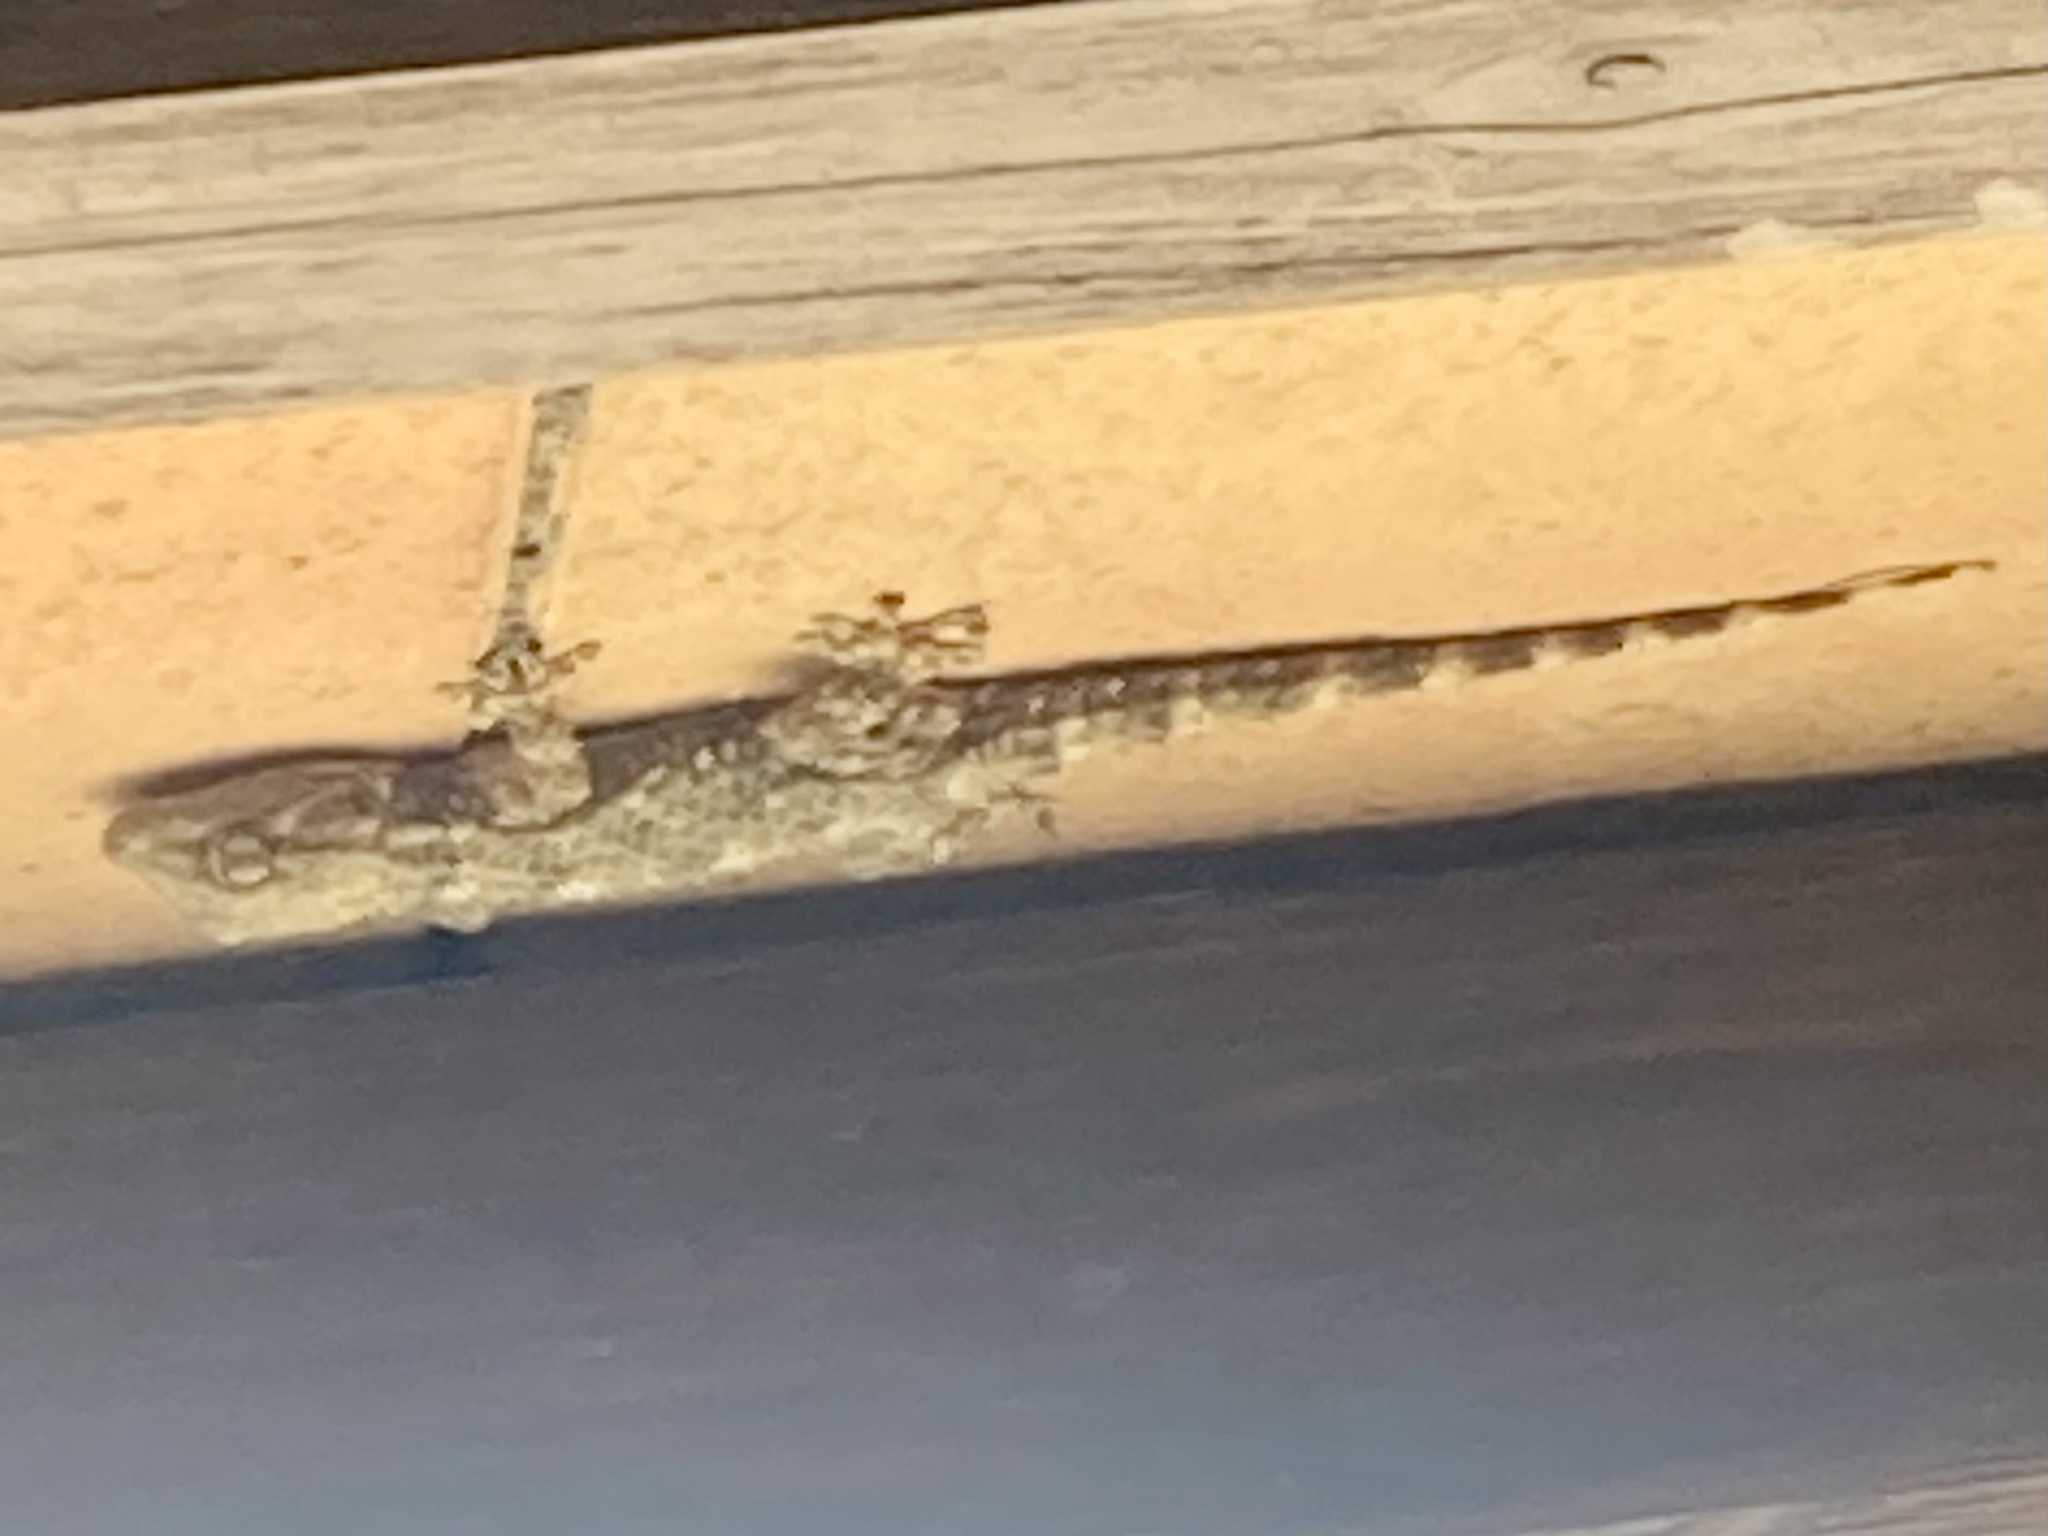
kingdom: Animalia
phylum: Chordata
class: Squamata
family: Phyllodactylidae
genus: Tarentola
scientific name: Tarentola mauritanica
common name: Moorish gecko
